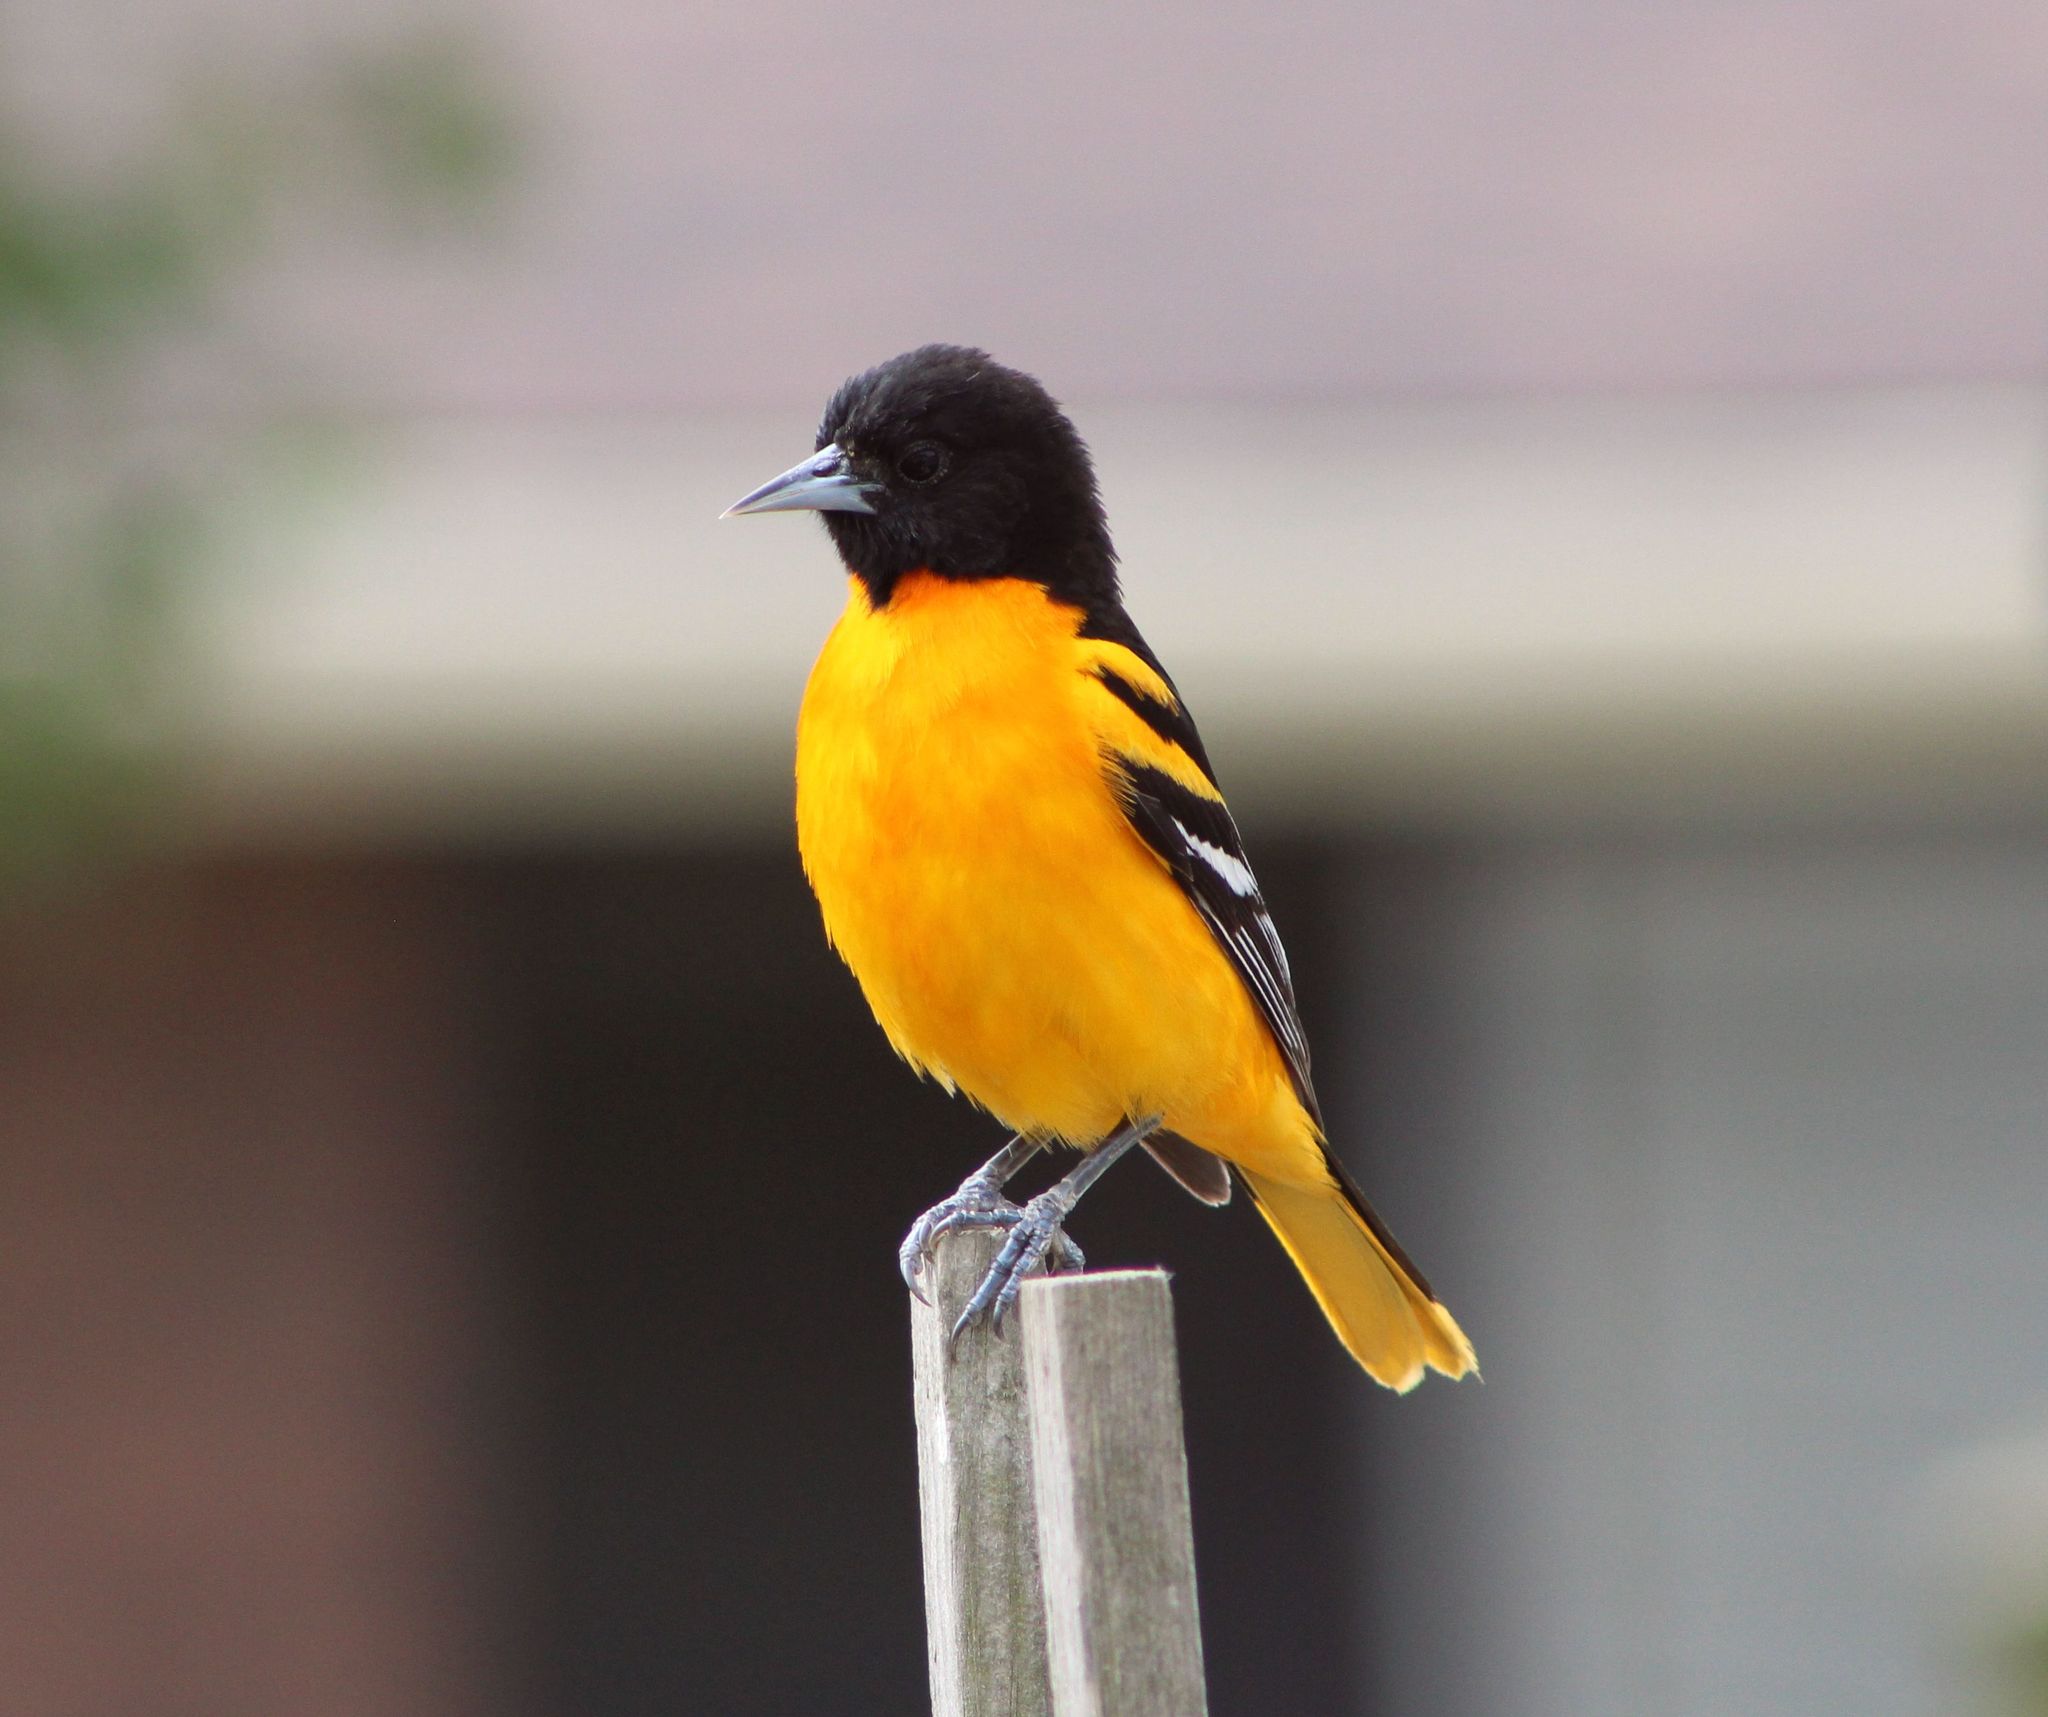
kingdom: Animalia
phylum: Chordata
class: Aves
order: Passeriformes
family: Icteridae
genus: Icterus
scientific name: Icterus galbula
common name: Baltimore oriole
